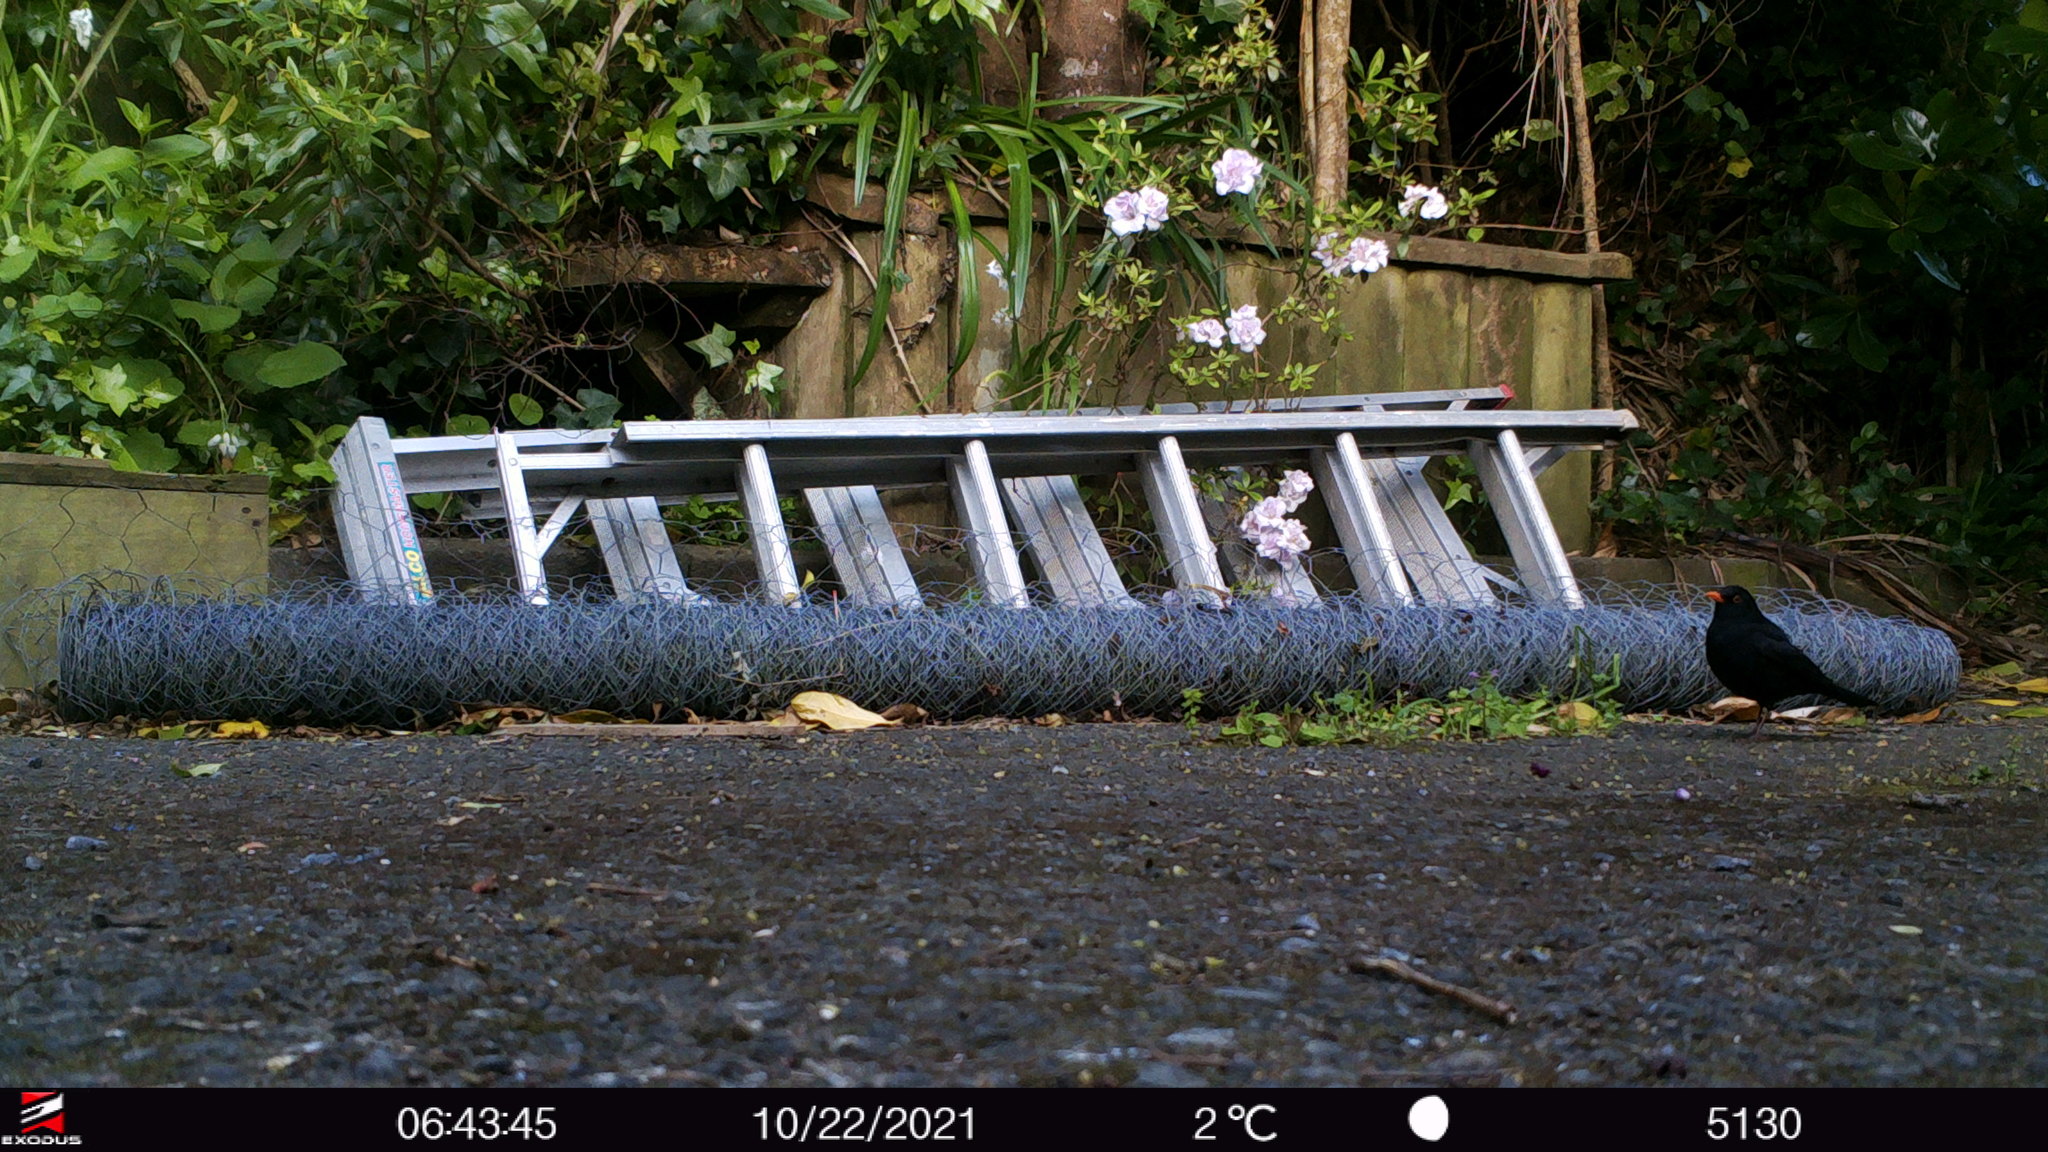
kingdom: Animalia
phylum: Chordata
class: Aves
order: Passeriformes
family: Turdidae
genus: Turdus
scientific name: Turdus merula
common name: Common blackbird
